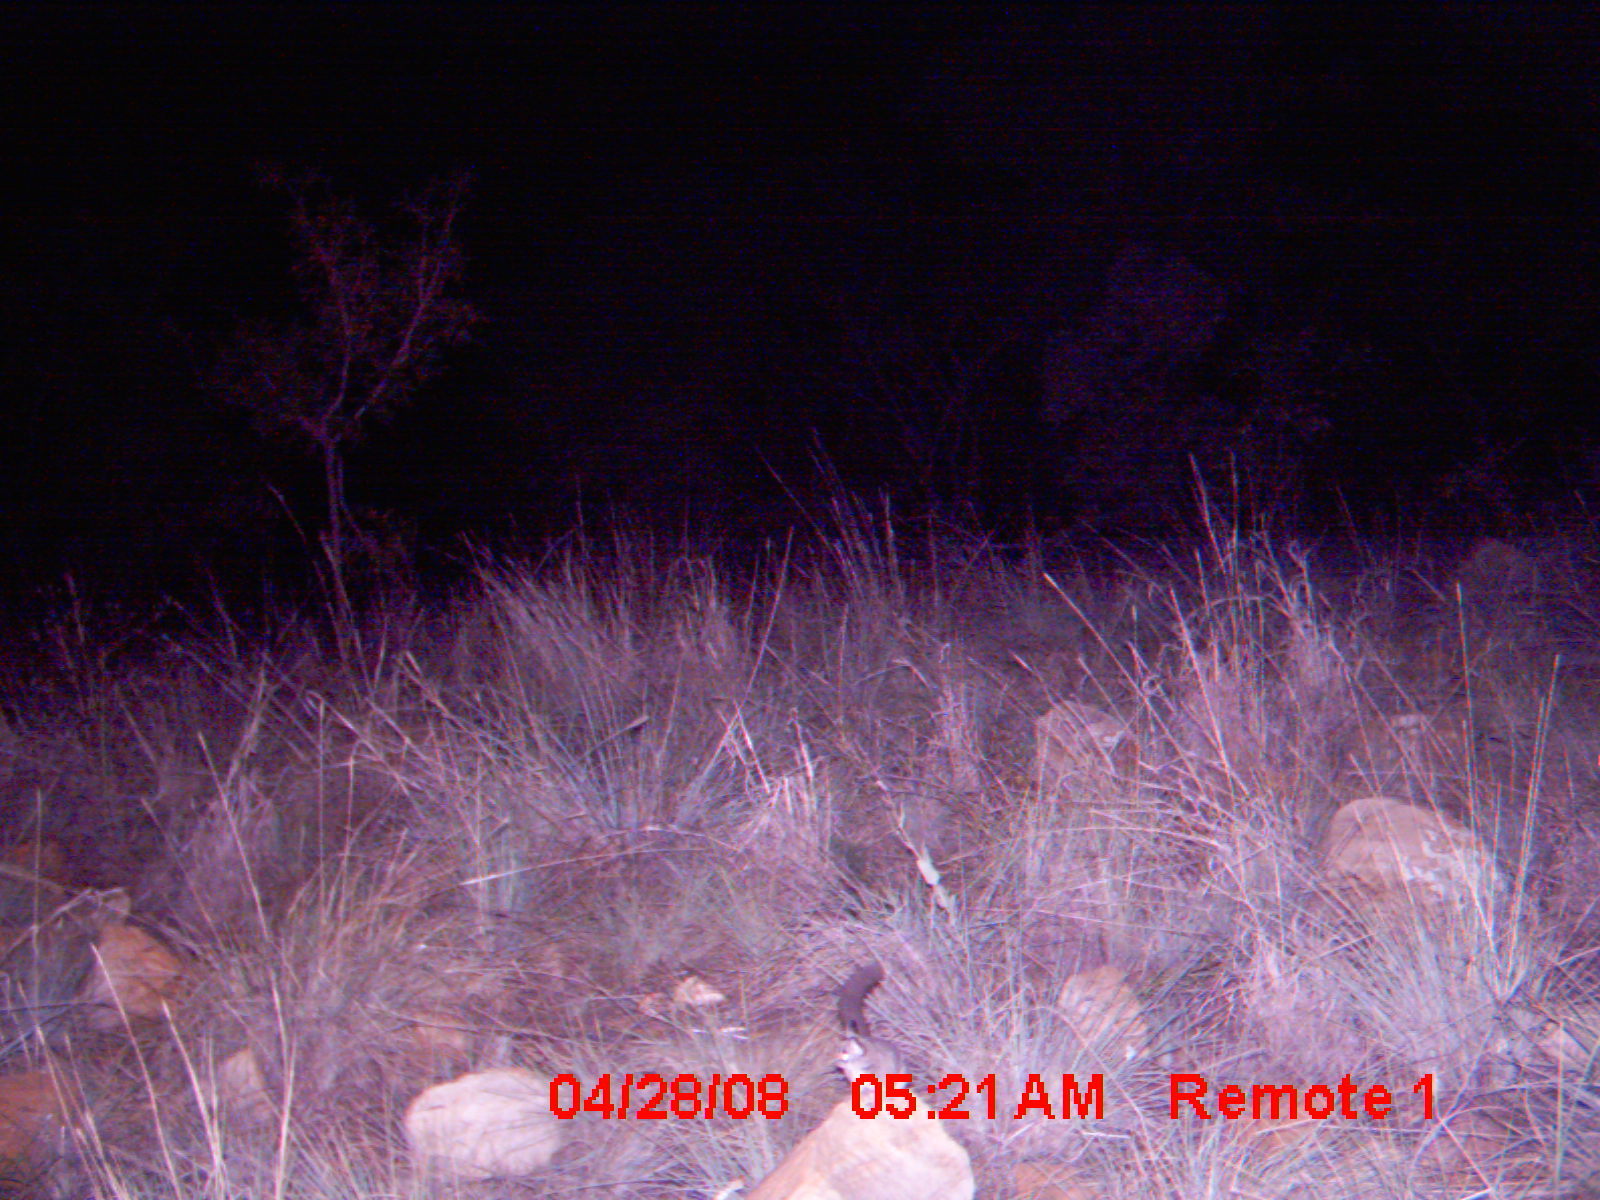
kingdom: Animalia
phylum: Chordata
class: Mammalia
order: Primates
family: Galagidae
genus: Galago
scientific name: Galago moholi
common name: Moholi bushbaby
